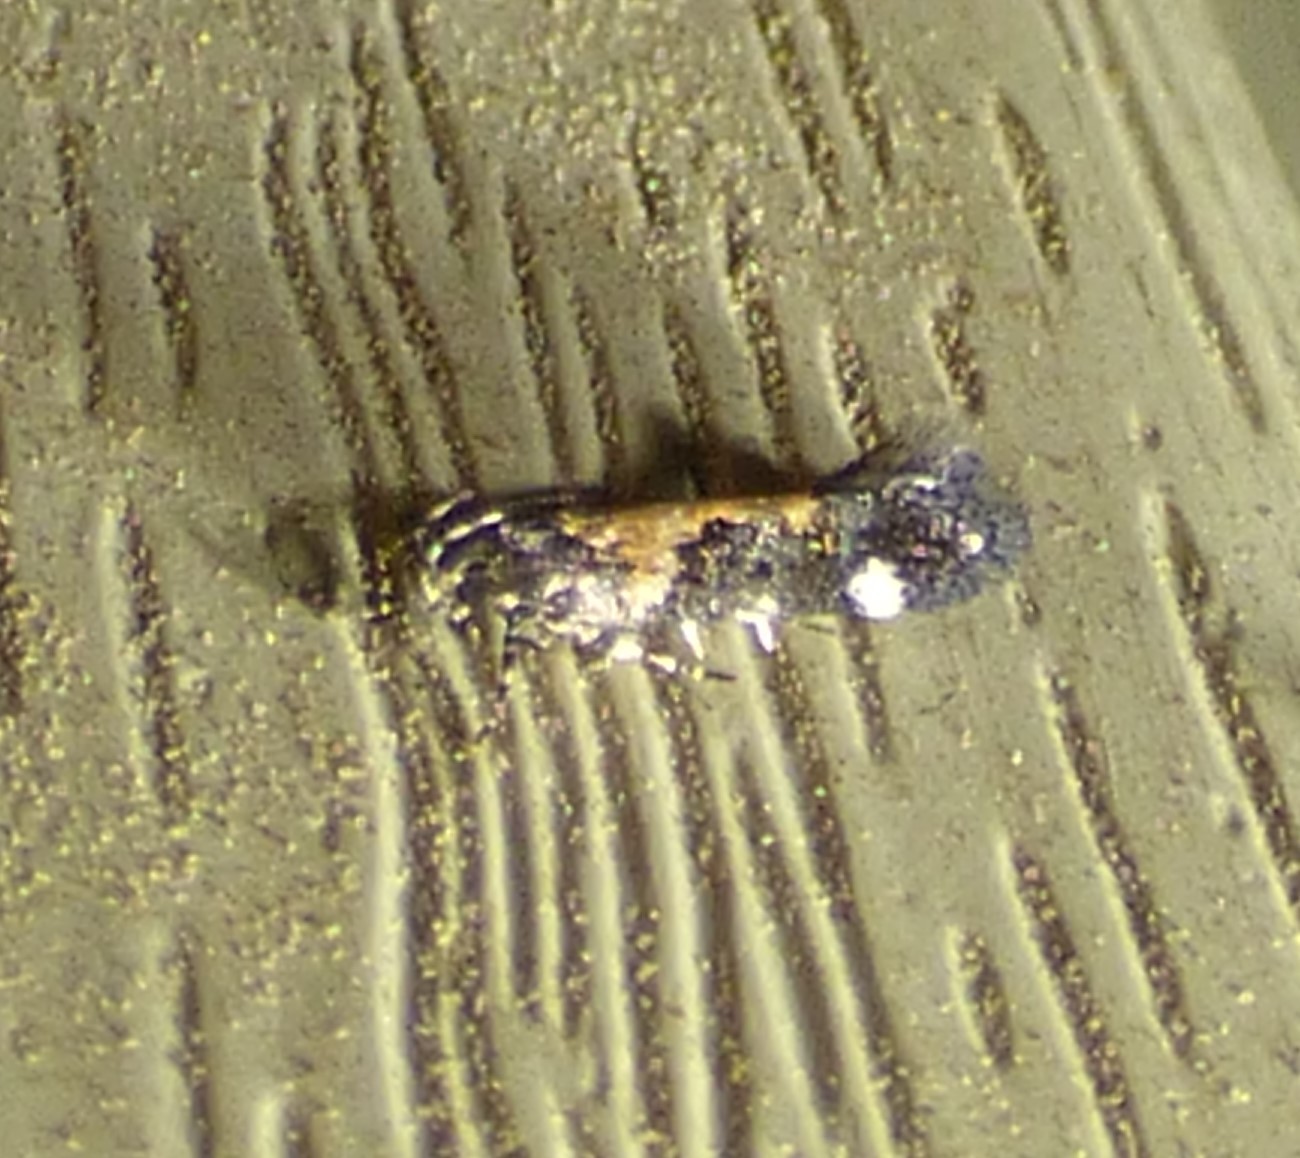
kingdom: Animalia
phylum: Arthropoda
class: Insecta
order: Lepidoptera
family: Gelechiidae
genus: Stegasta
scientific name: Stegasta bosqueella
